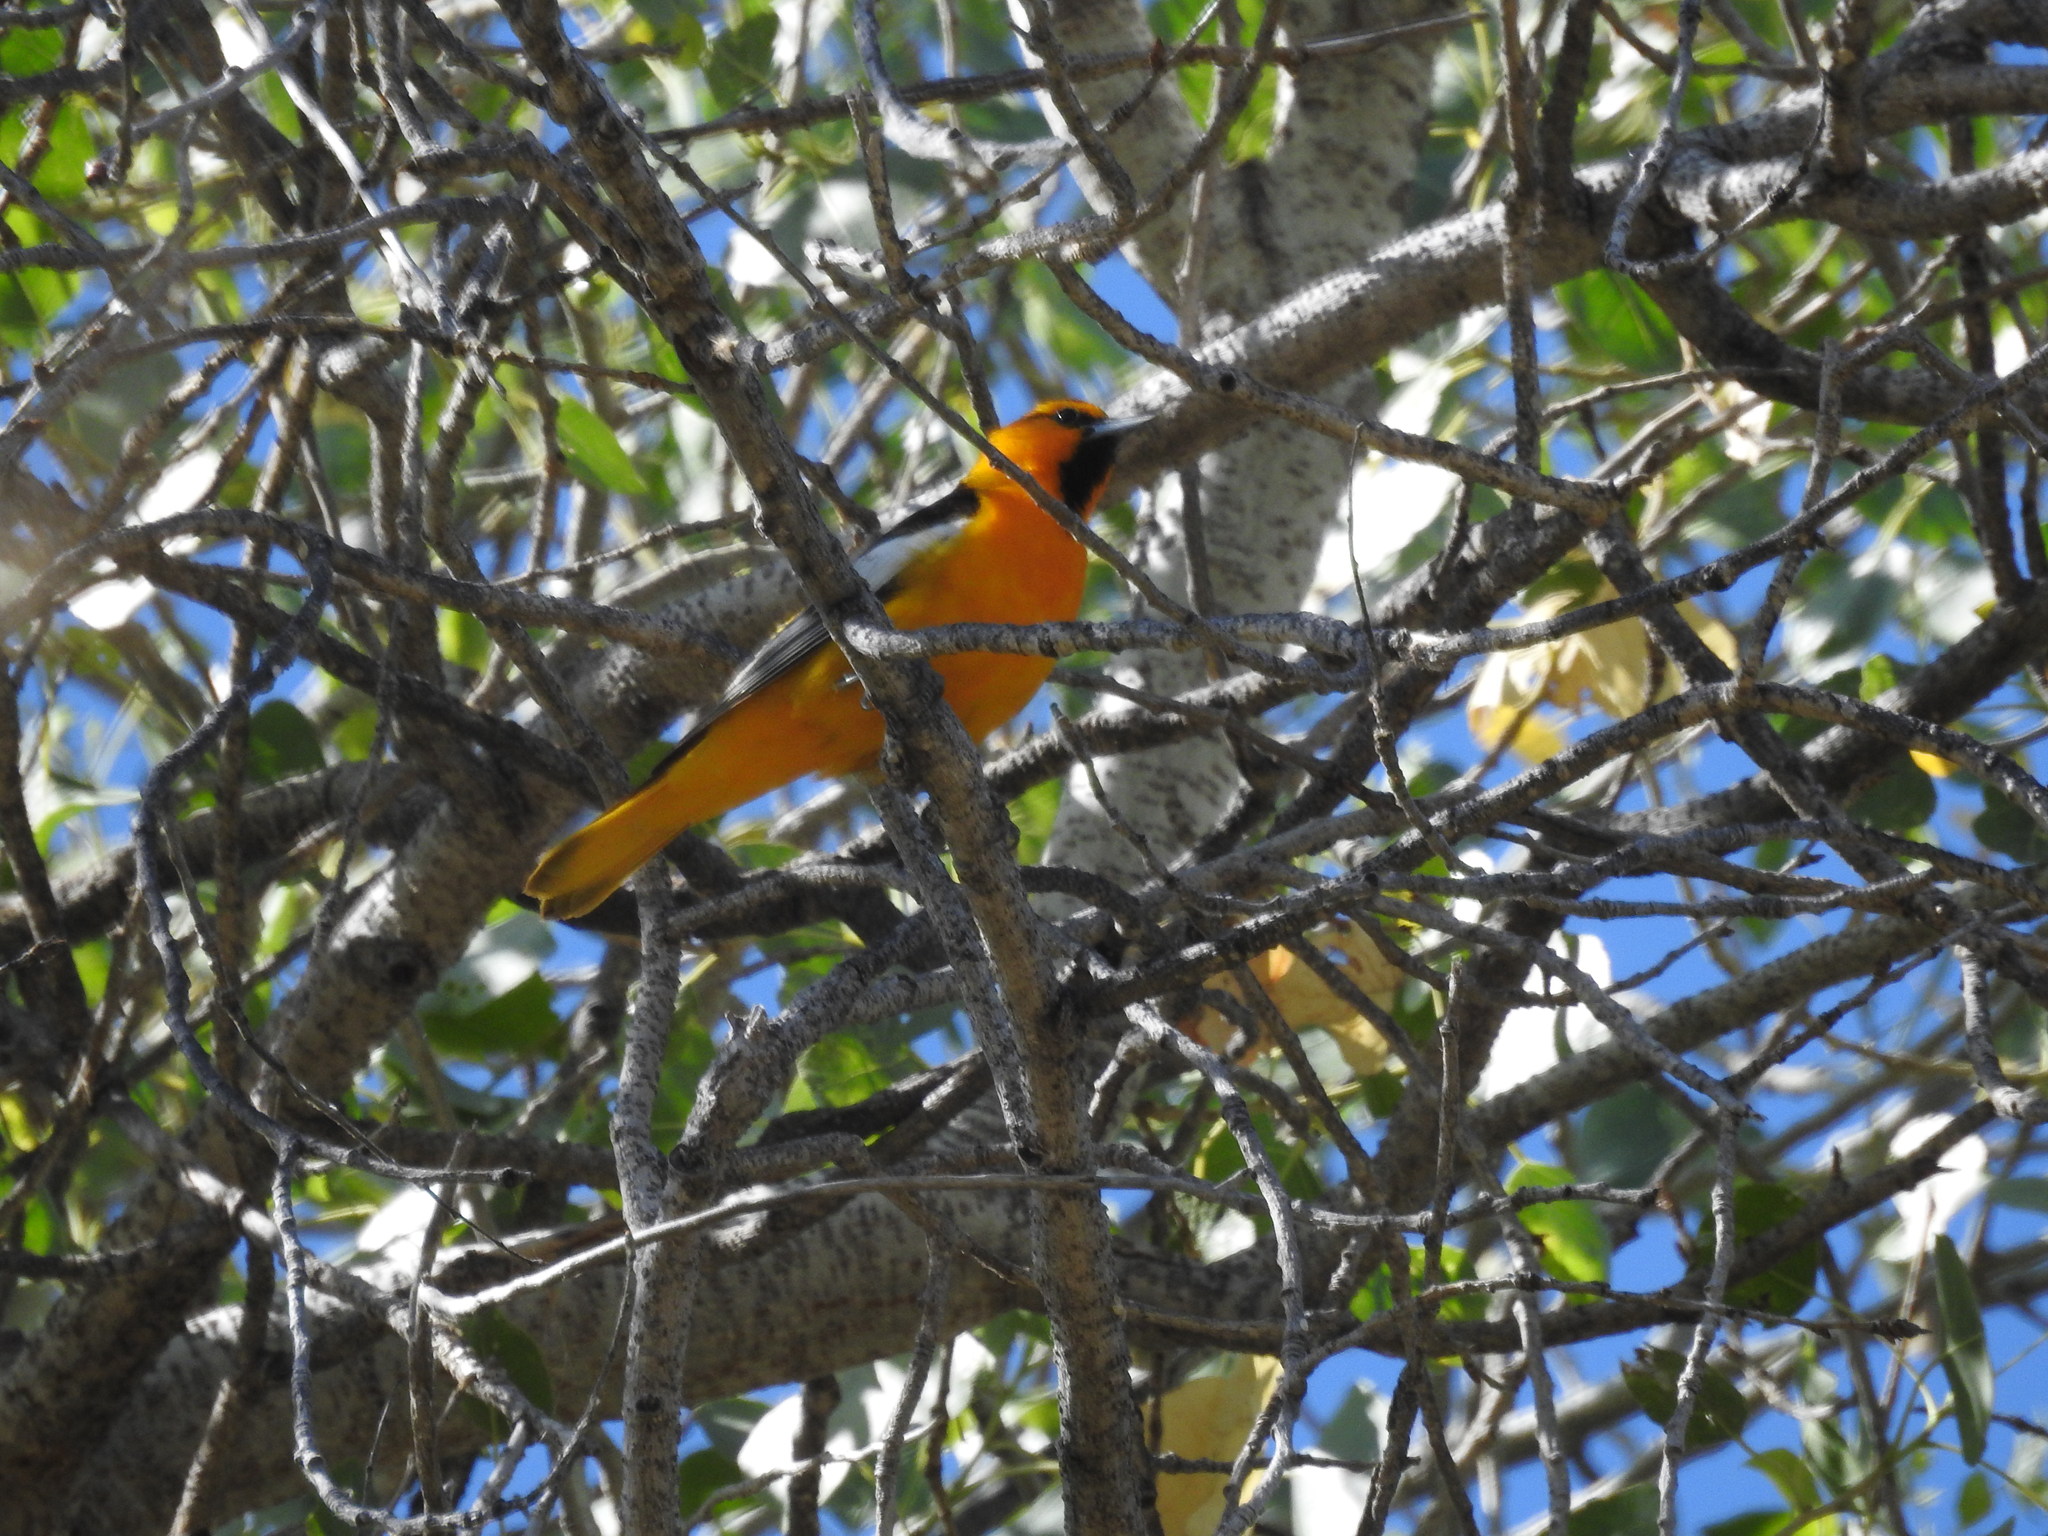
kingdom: Animalia
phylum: Chordata
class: Aves
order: Passeriformes
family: Icteridae
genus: Icterus
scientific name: Icterus bullockii
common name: Bullock's oriole
